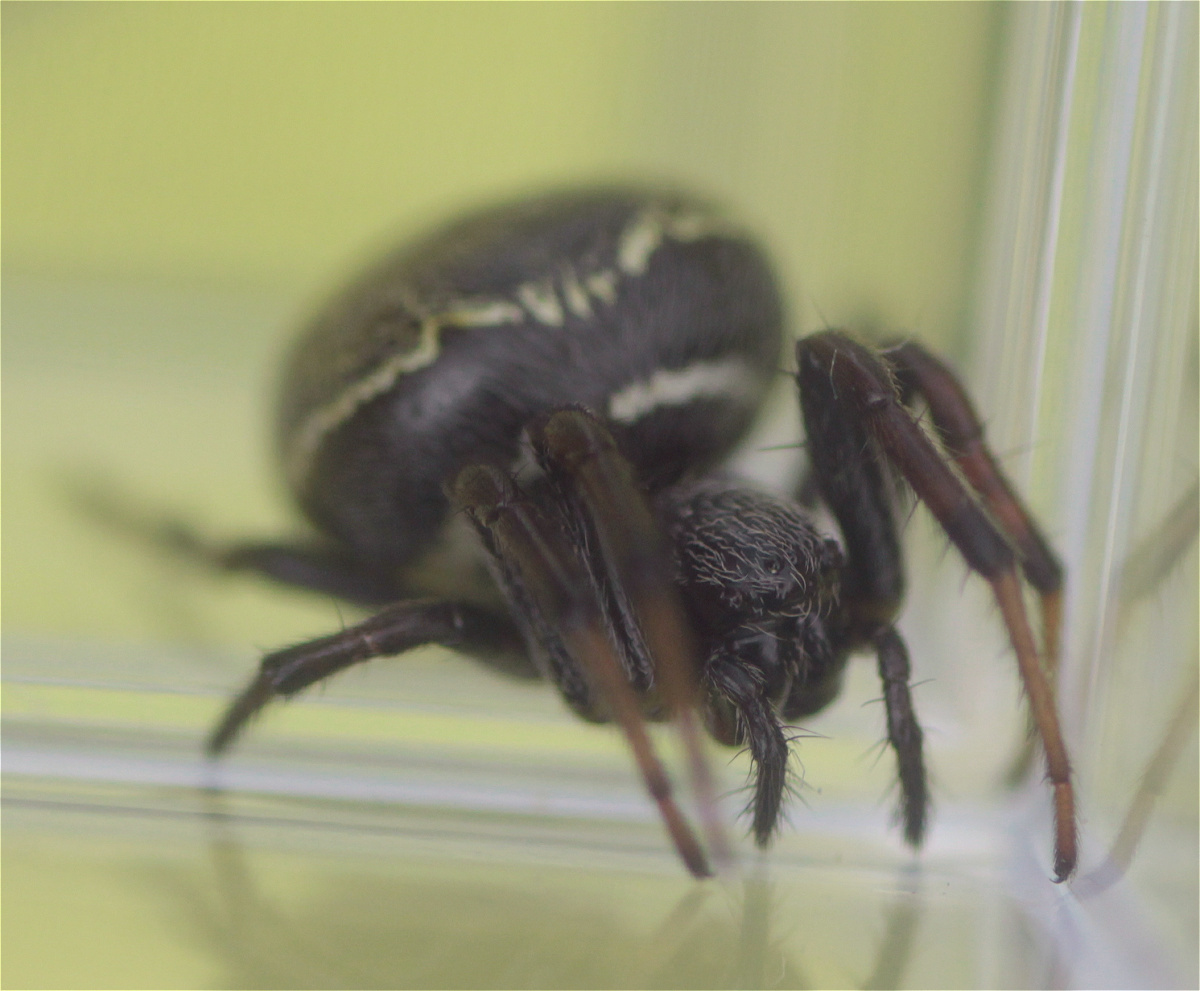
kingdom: Animalia
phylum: Arthropoda
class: Arachnida
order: Araneae
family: Araneidae
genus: Araneus
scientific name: Araneus granadensis
